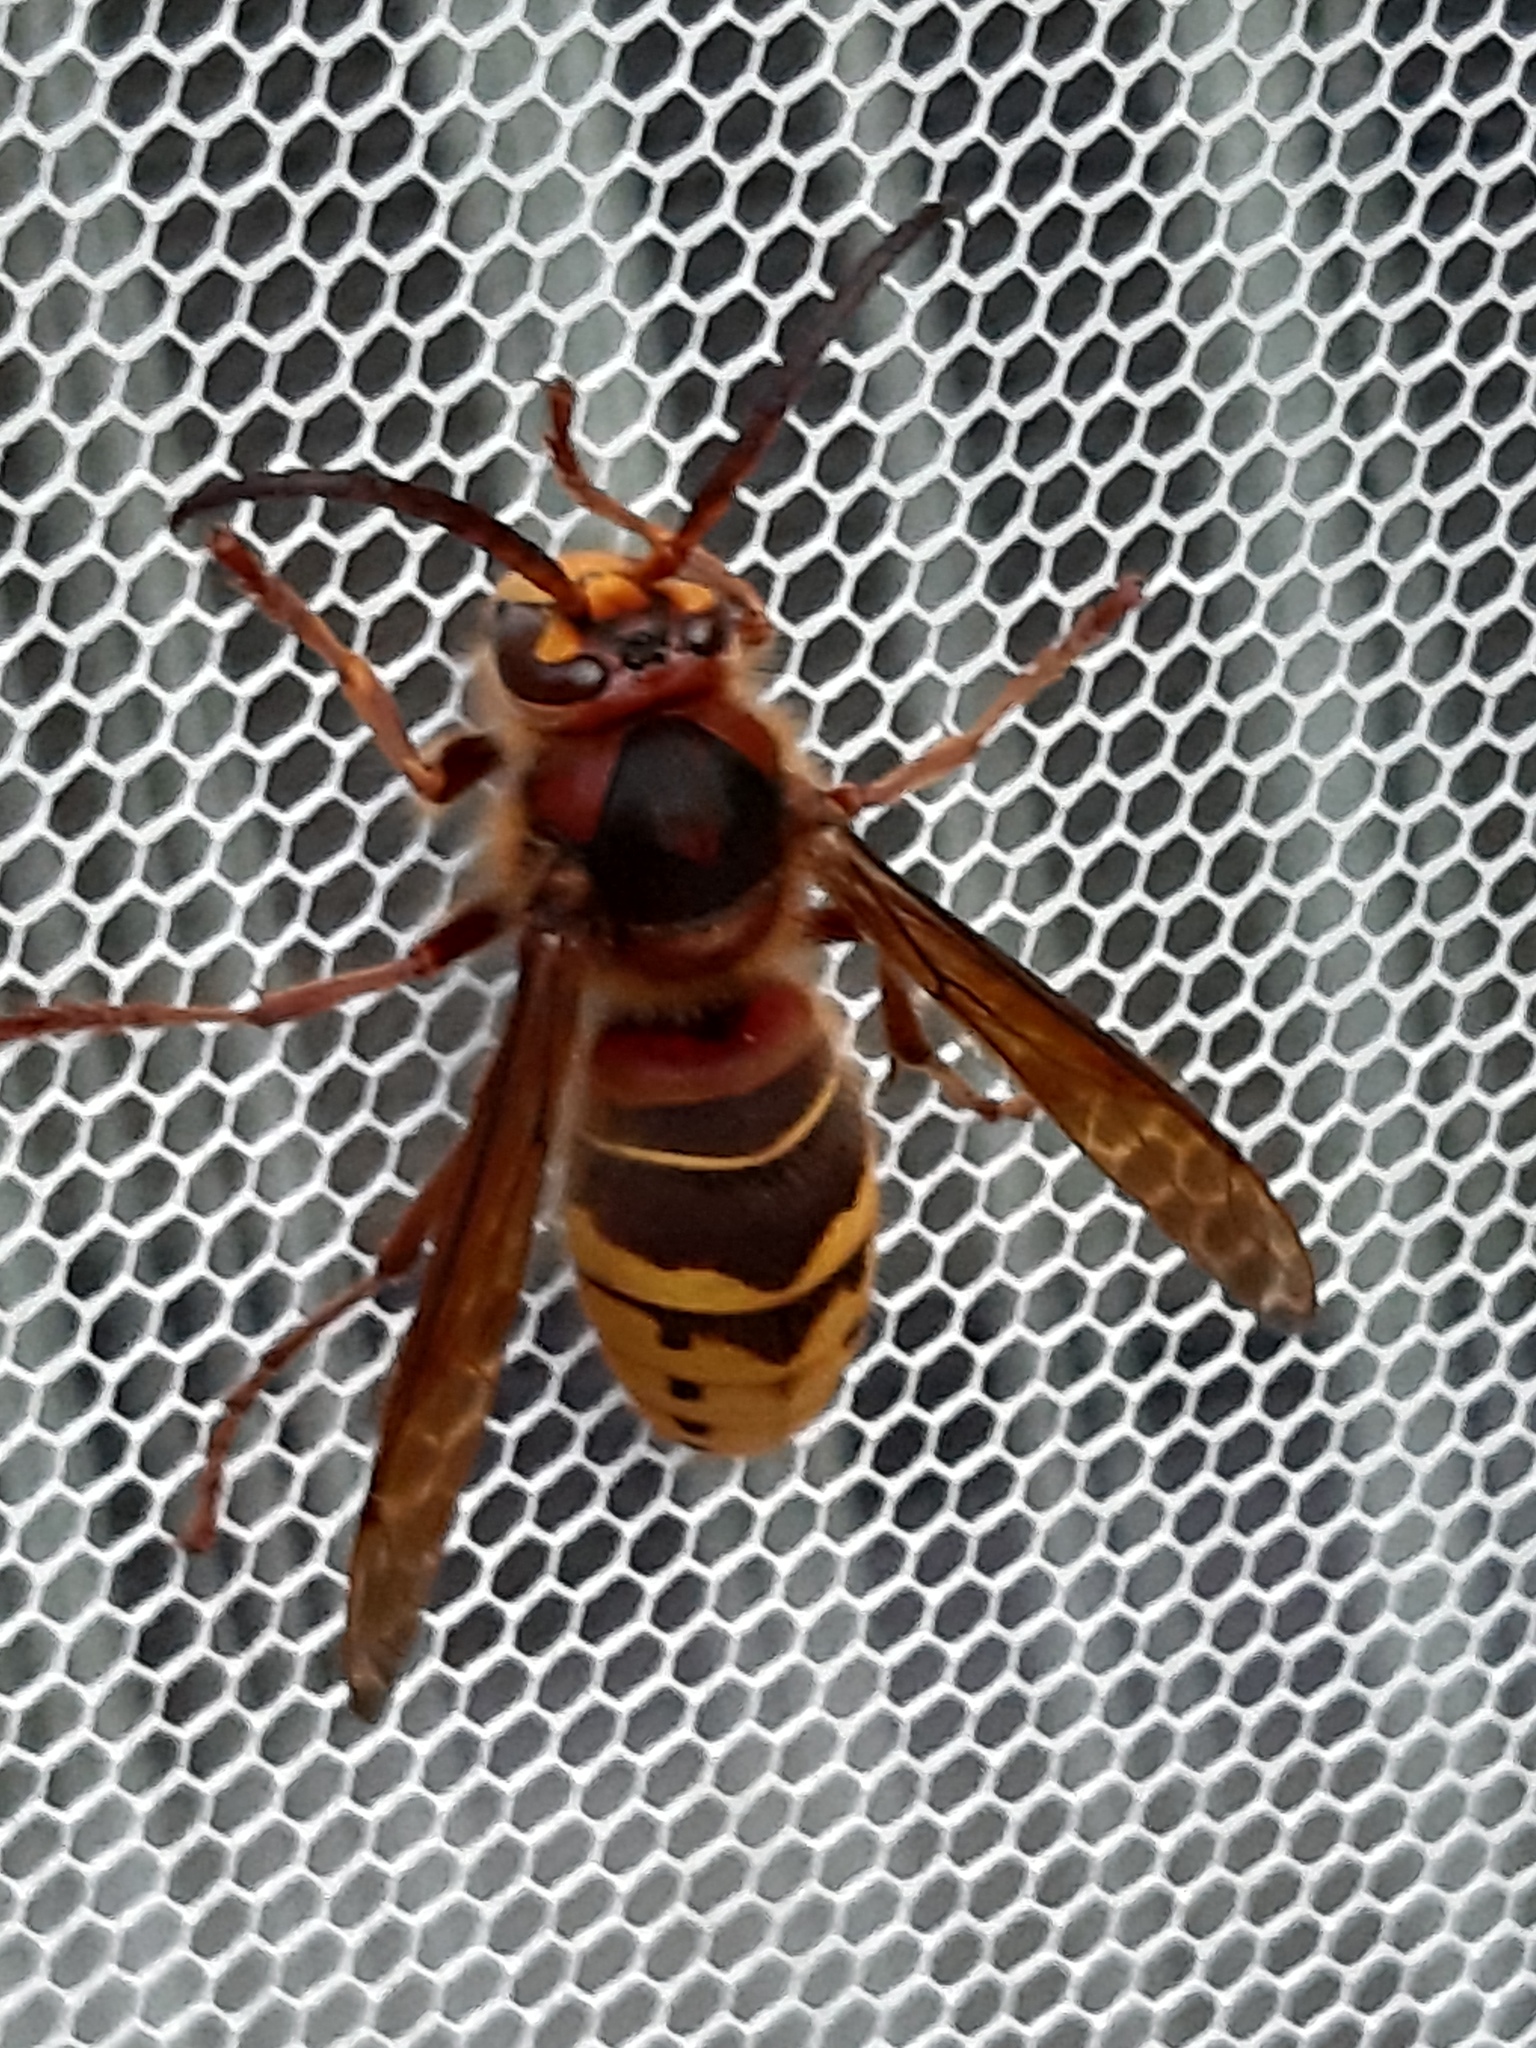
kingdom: Animalia
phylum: Arthropoda
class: Insecta
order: Hymenoptera
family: Vespidae
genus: Vespa
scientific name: Vespa crabro
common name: Hornet
